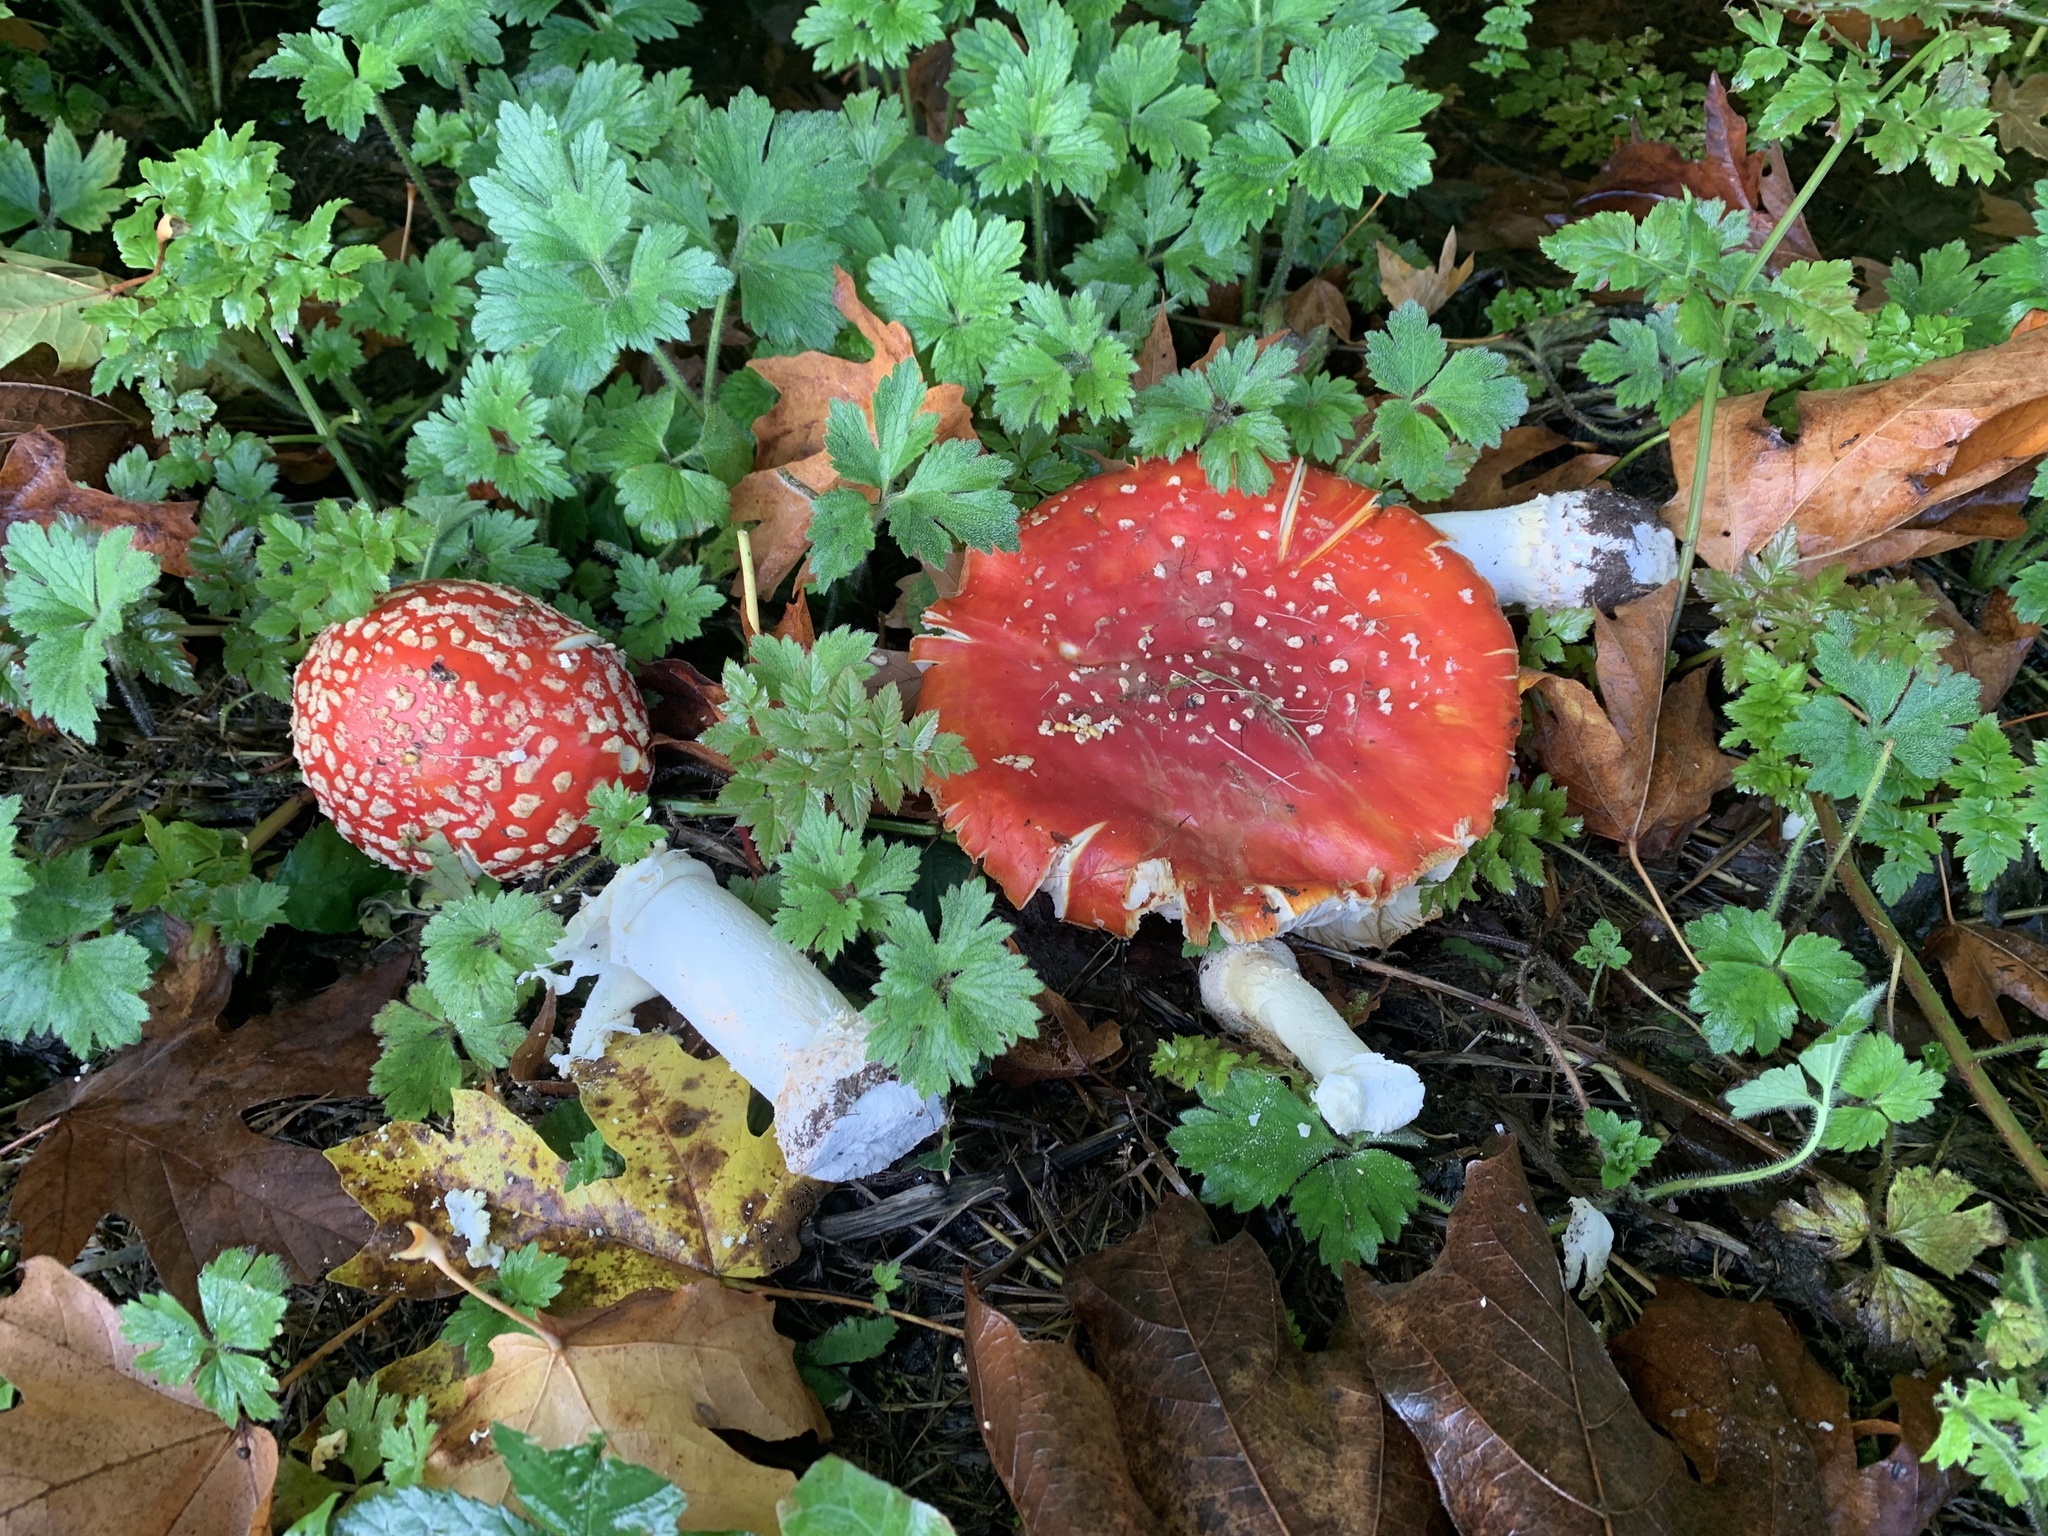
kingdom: Fungi
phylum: Basidiomycota
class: Agaricomycetes
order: Agaricales
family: Amanitaceae
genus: Amanita
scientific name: Amanita muscaria
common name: Fly agaric
